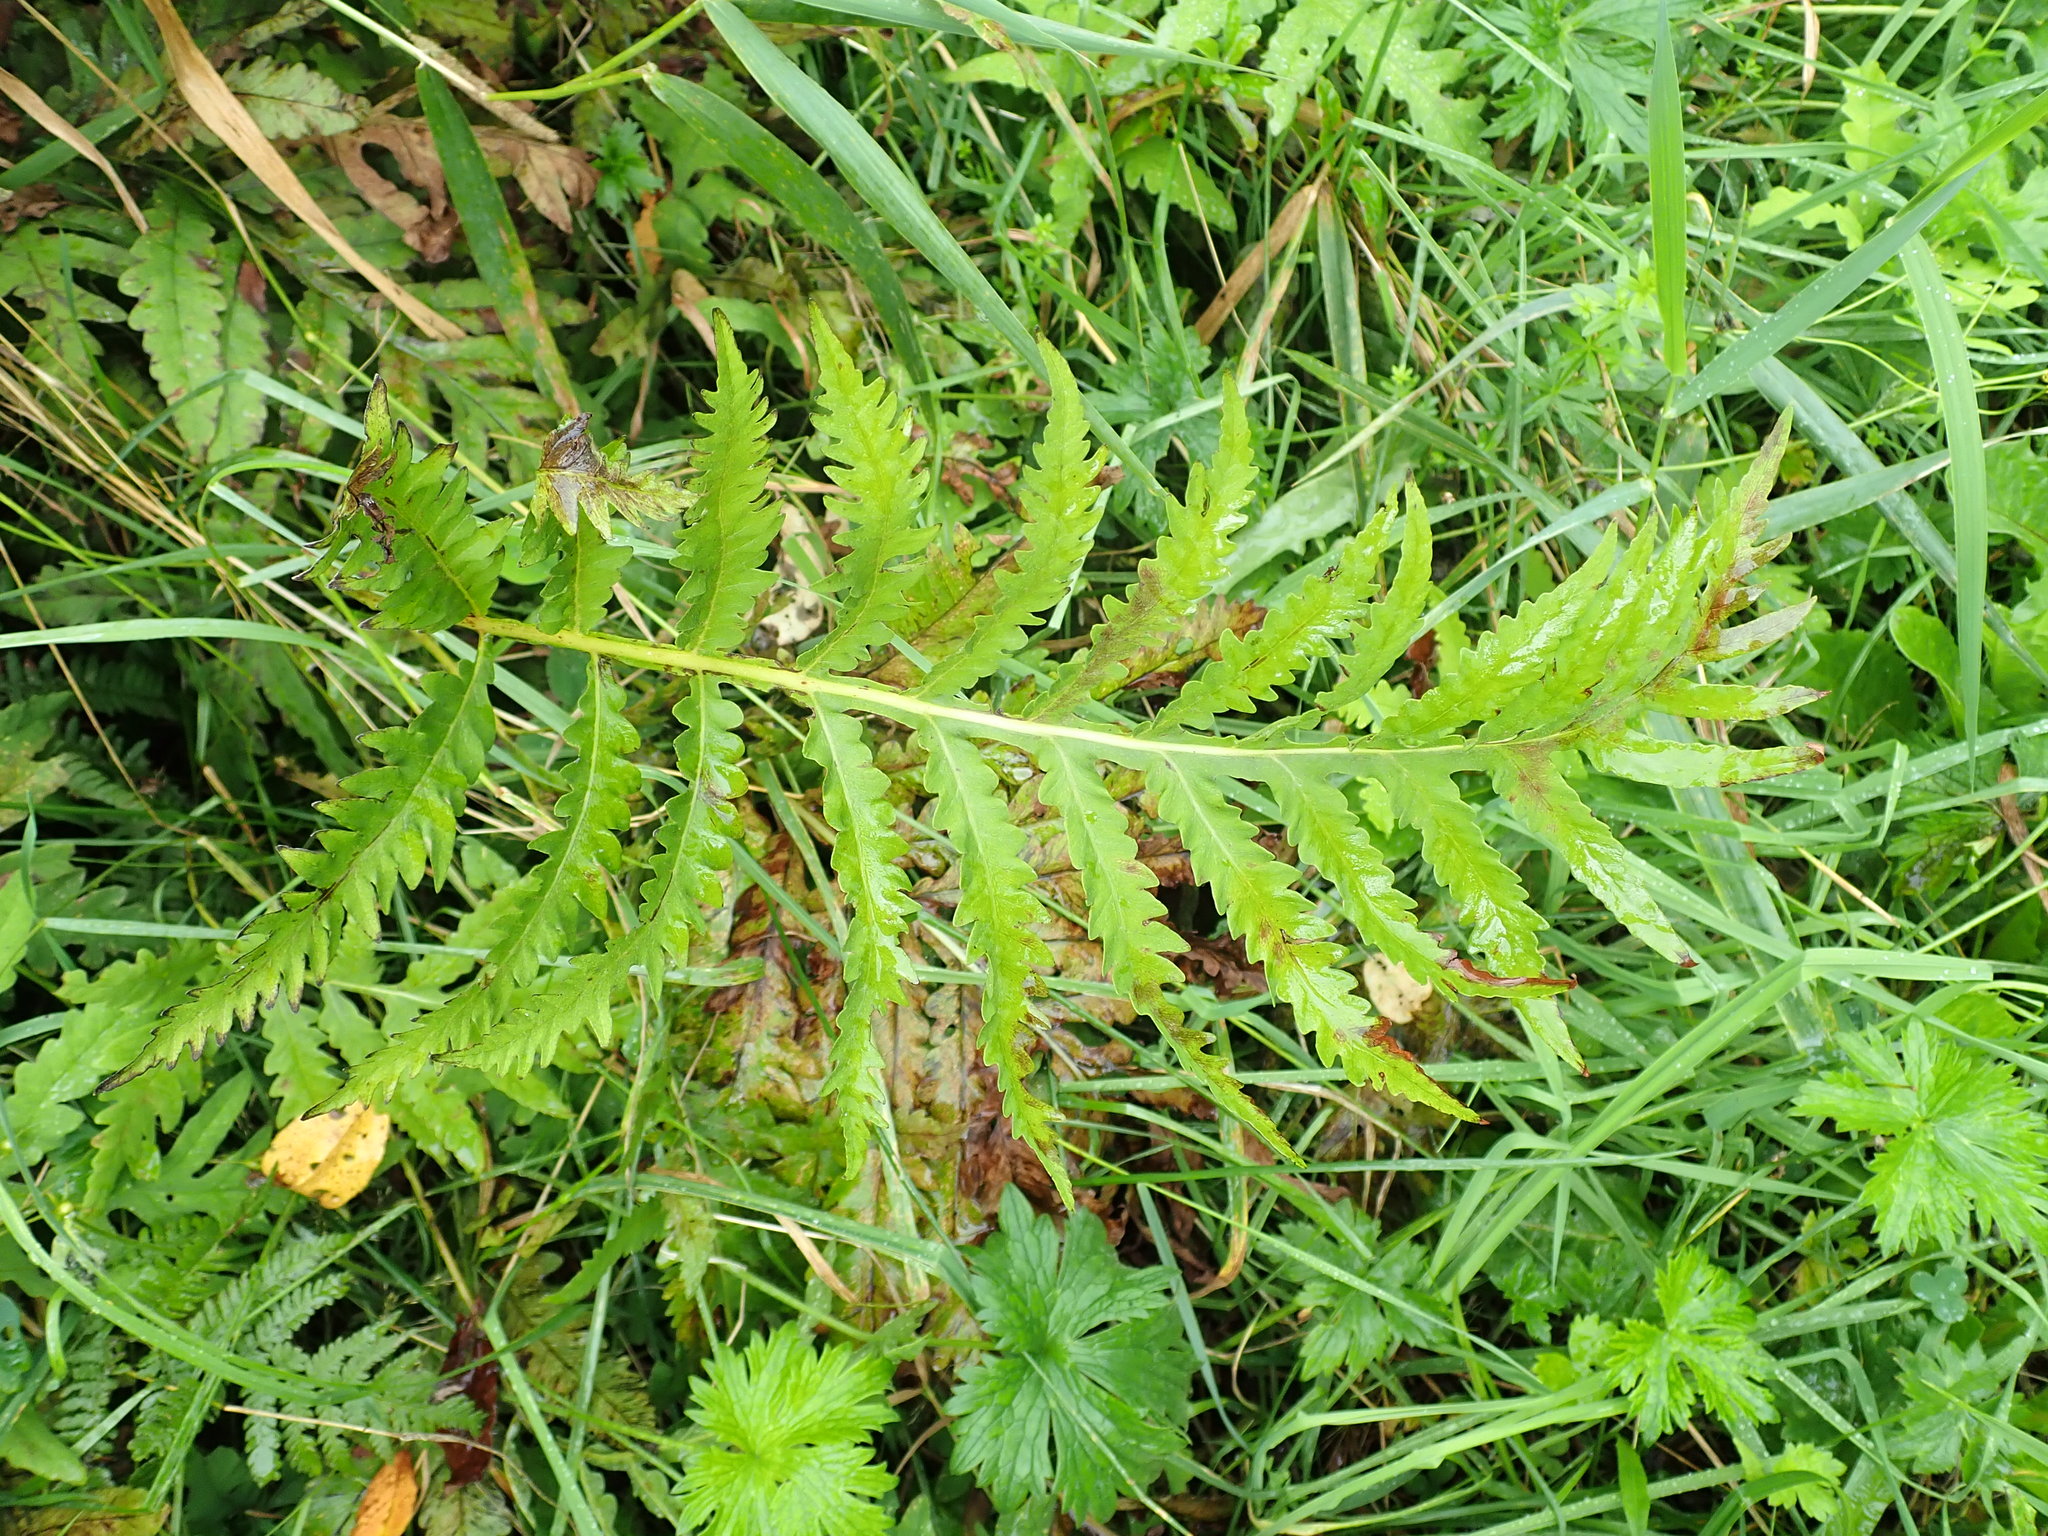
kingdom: Plantae
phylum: Tracheophyta
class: Polypodiopsida
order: Polypodiales
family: Onocleaceae
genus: Onoclea
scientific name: Onoclea sensibilis
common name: Sensitive fern
